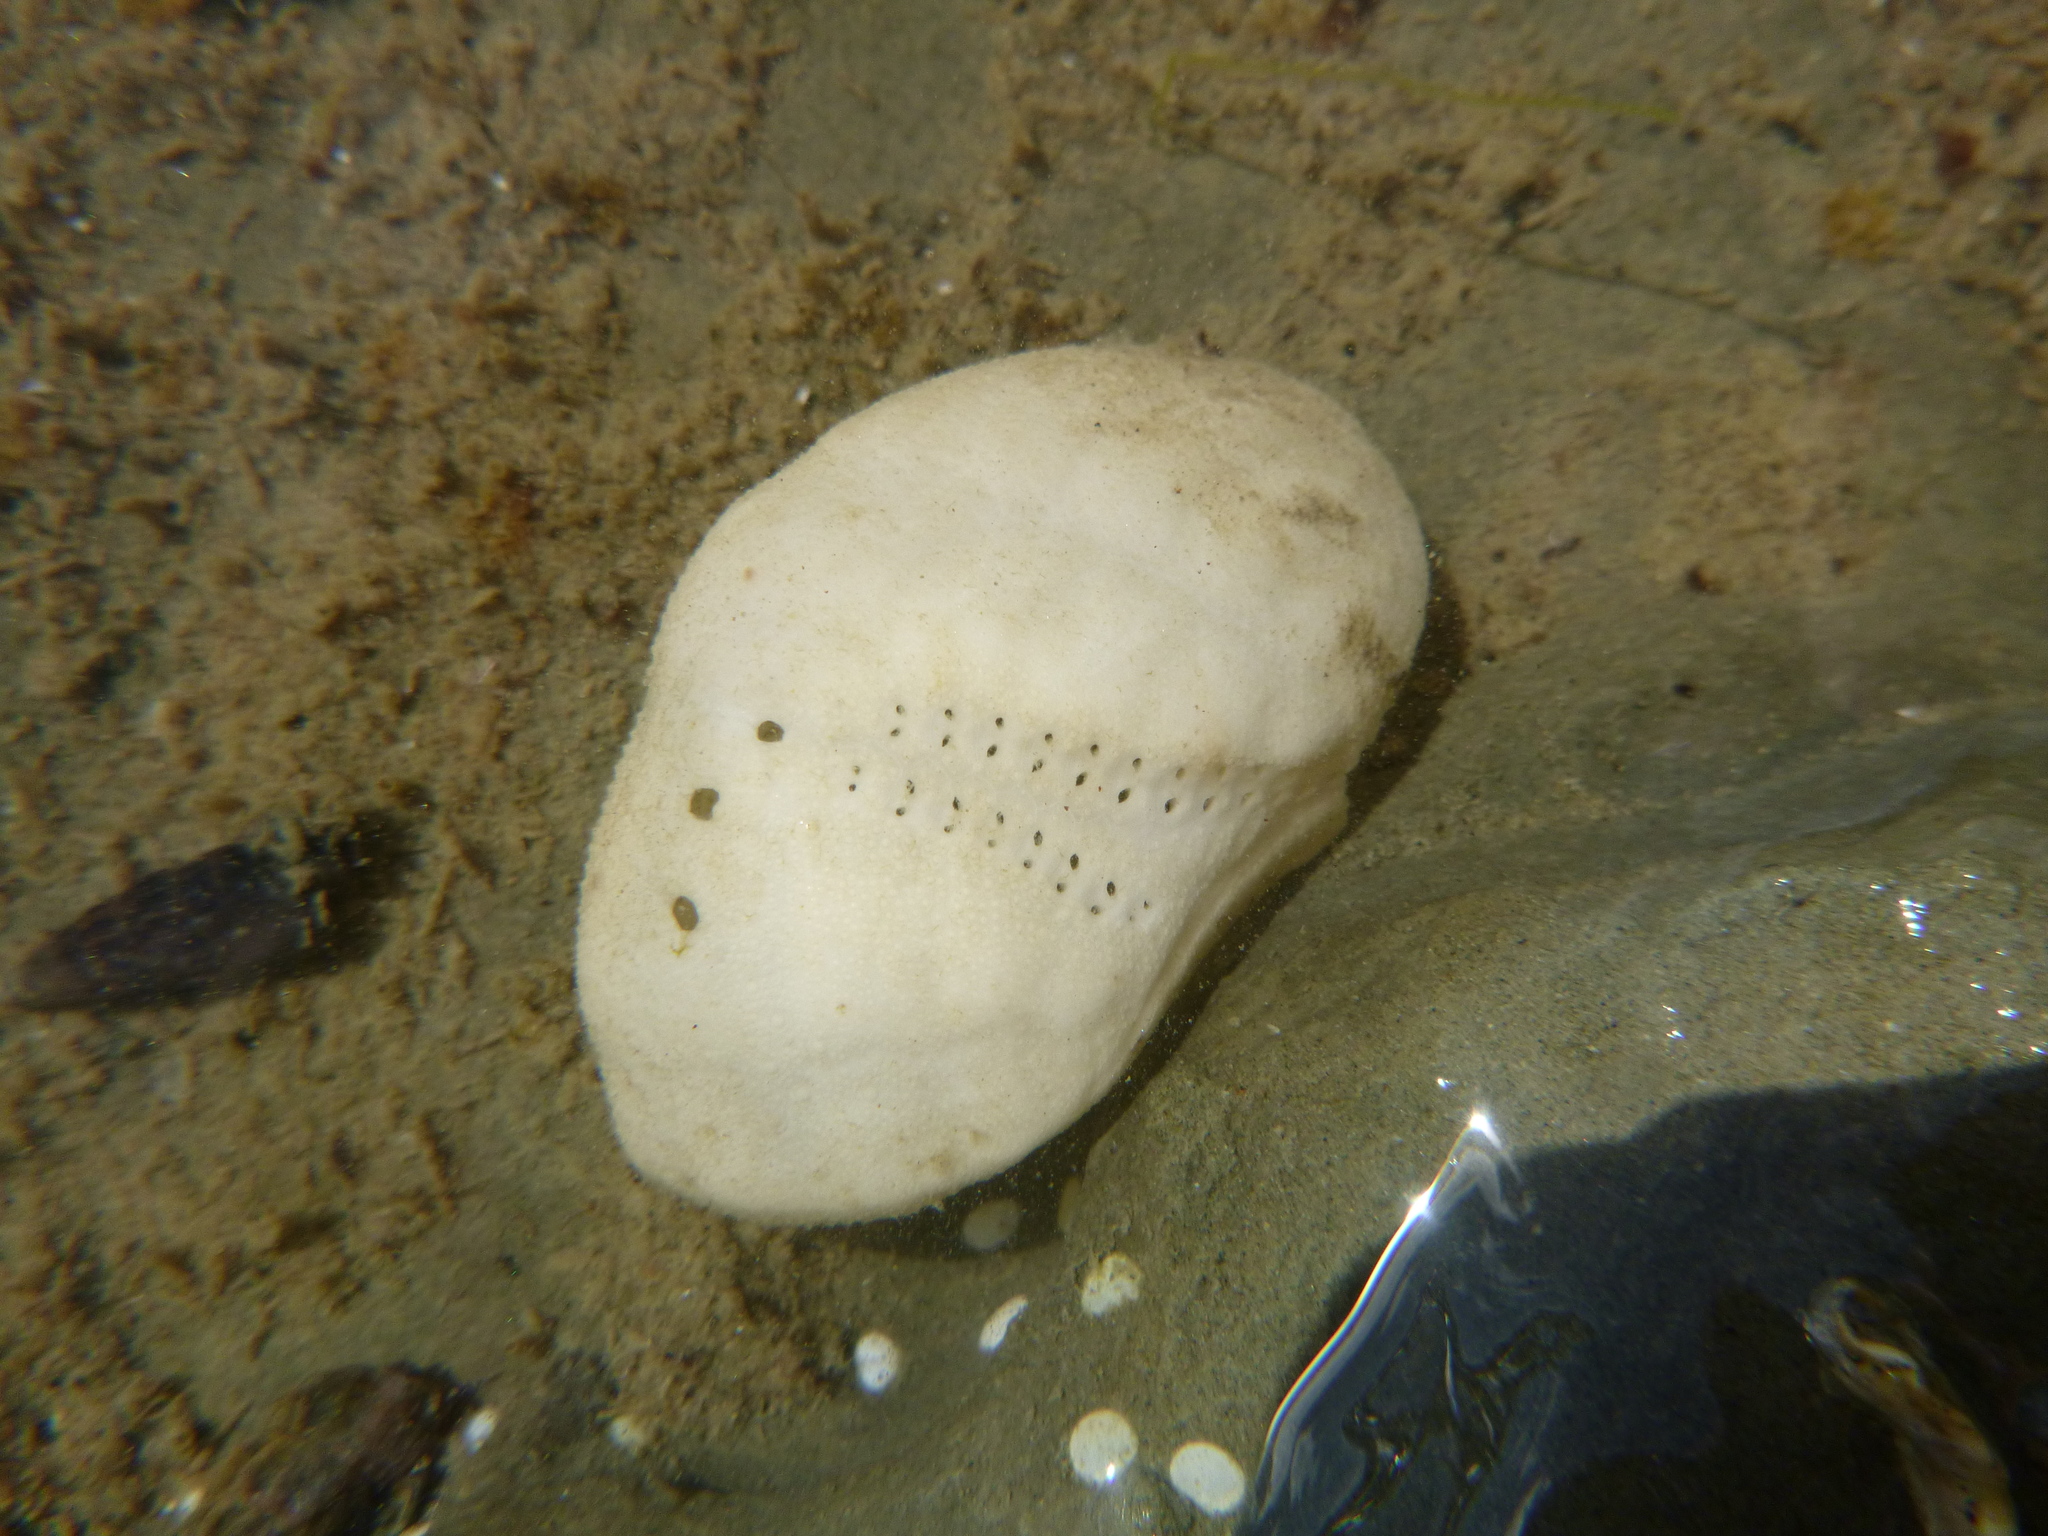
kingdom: Animalia
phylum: Echinodermata
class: Echinoidea
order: Spatangoida
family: Loveniidae
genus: Echinocardium
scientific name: Echinocardium cordatum
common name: Heart-urchin
